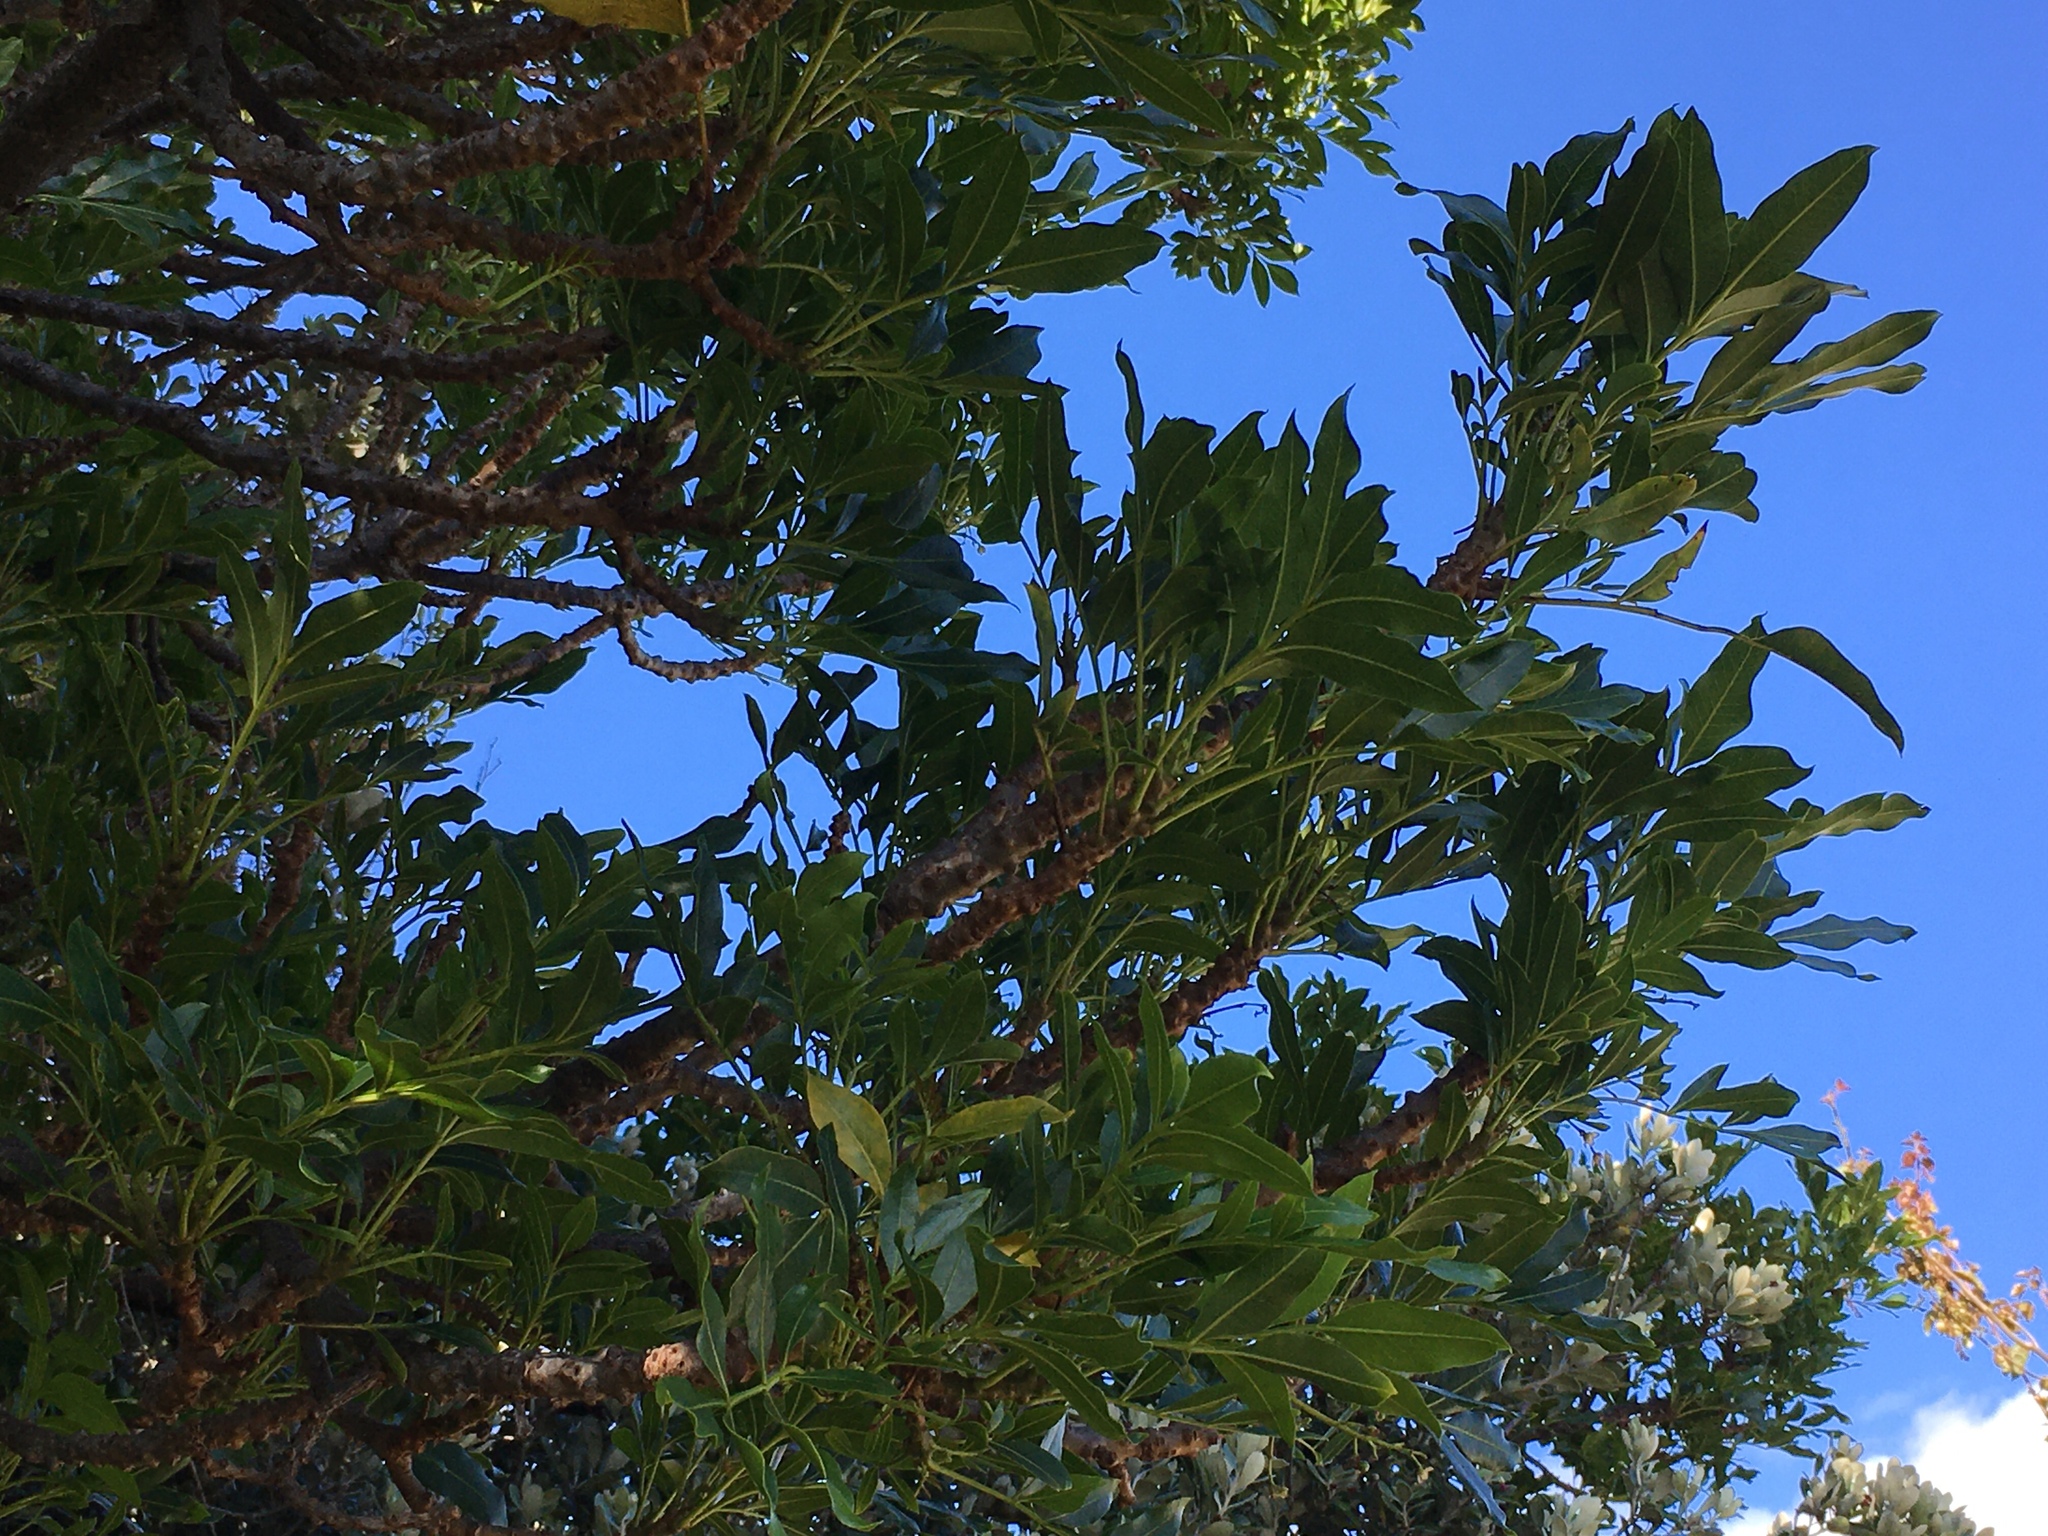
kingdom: Plantae
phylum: Tracheophyta
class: Magnoliopsida
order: Sapindales
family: Meliaceae
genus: Ekebergia
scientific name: Ekebergia capensis
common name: Cape-ash
